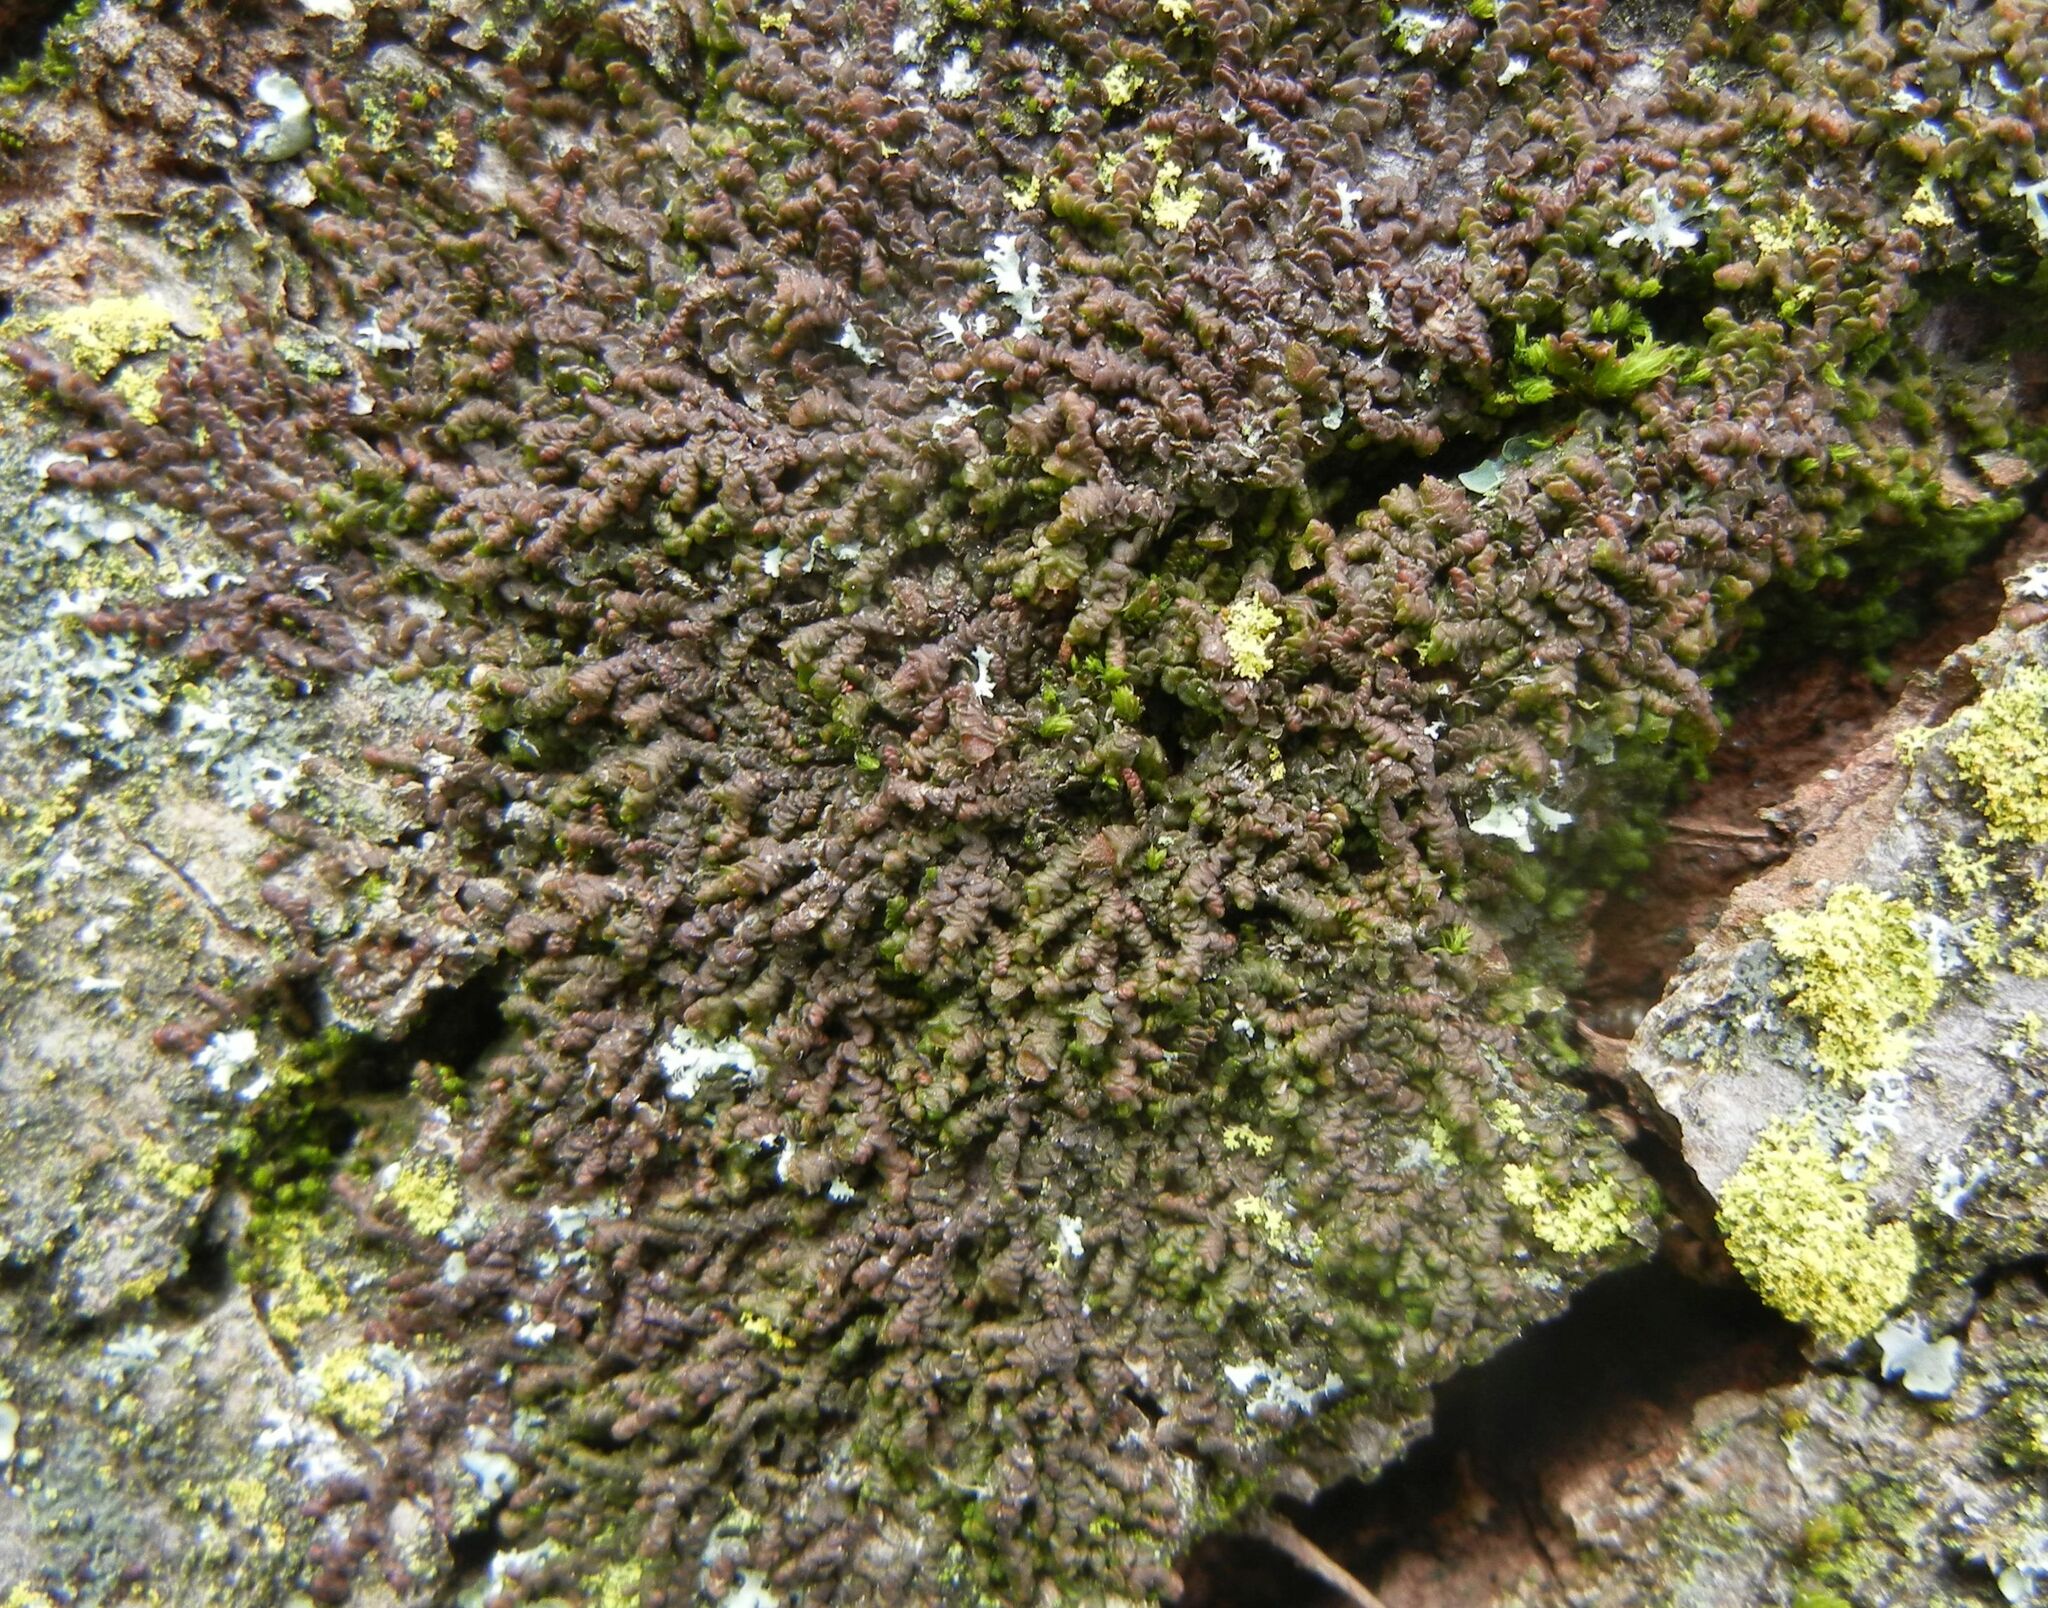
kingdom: Plantae
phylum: Marchantiophyta
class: Jungermanniopsida
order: Porellales
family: Frullaniaceae
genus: Frullania
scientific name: Frullania dilatata
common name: Dilated scalewort
